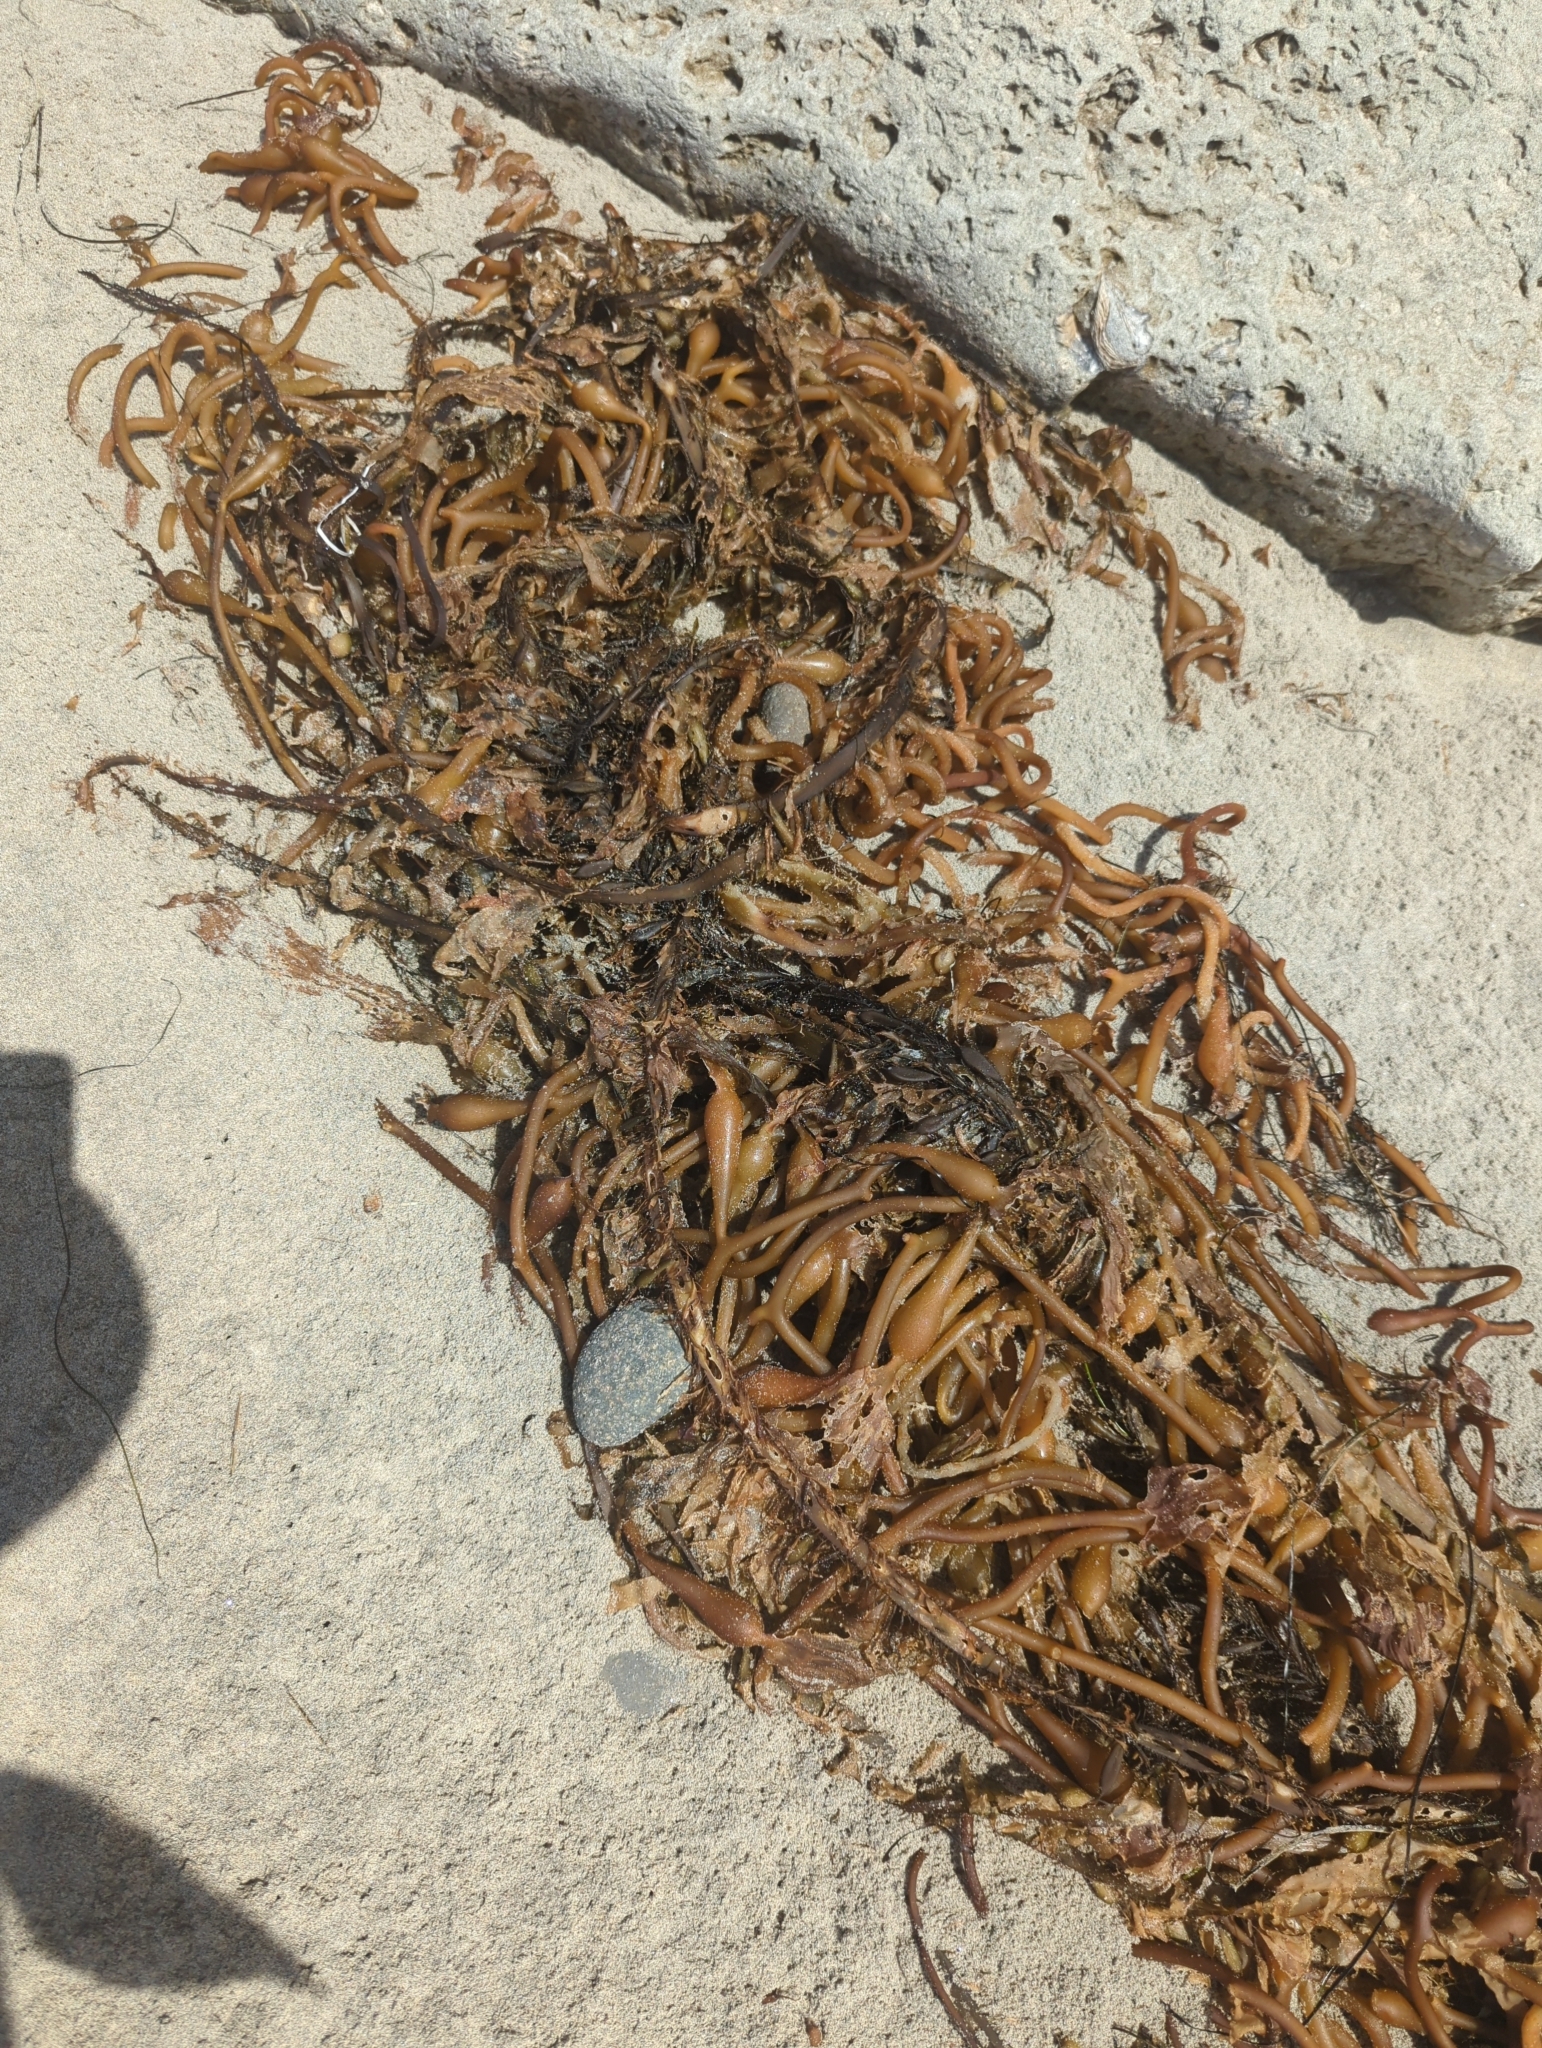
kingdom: Chromista
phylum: Ochrophyta
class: Phaeophyceae
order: Laminariales
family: Laminariaceae
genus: Macrocystis
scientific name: Macrocystis pyrifera
